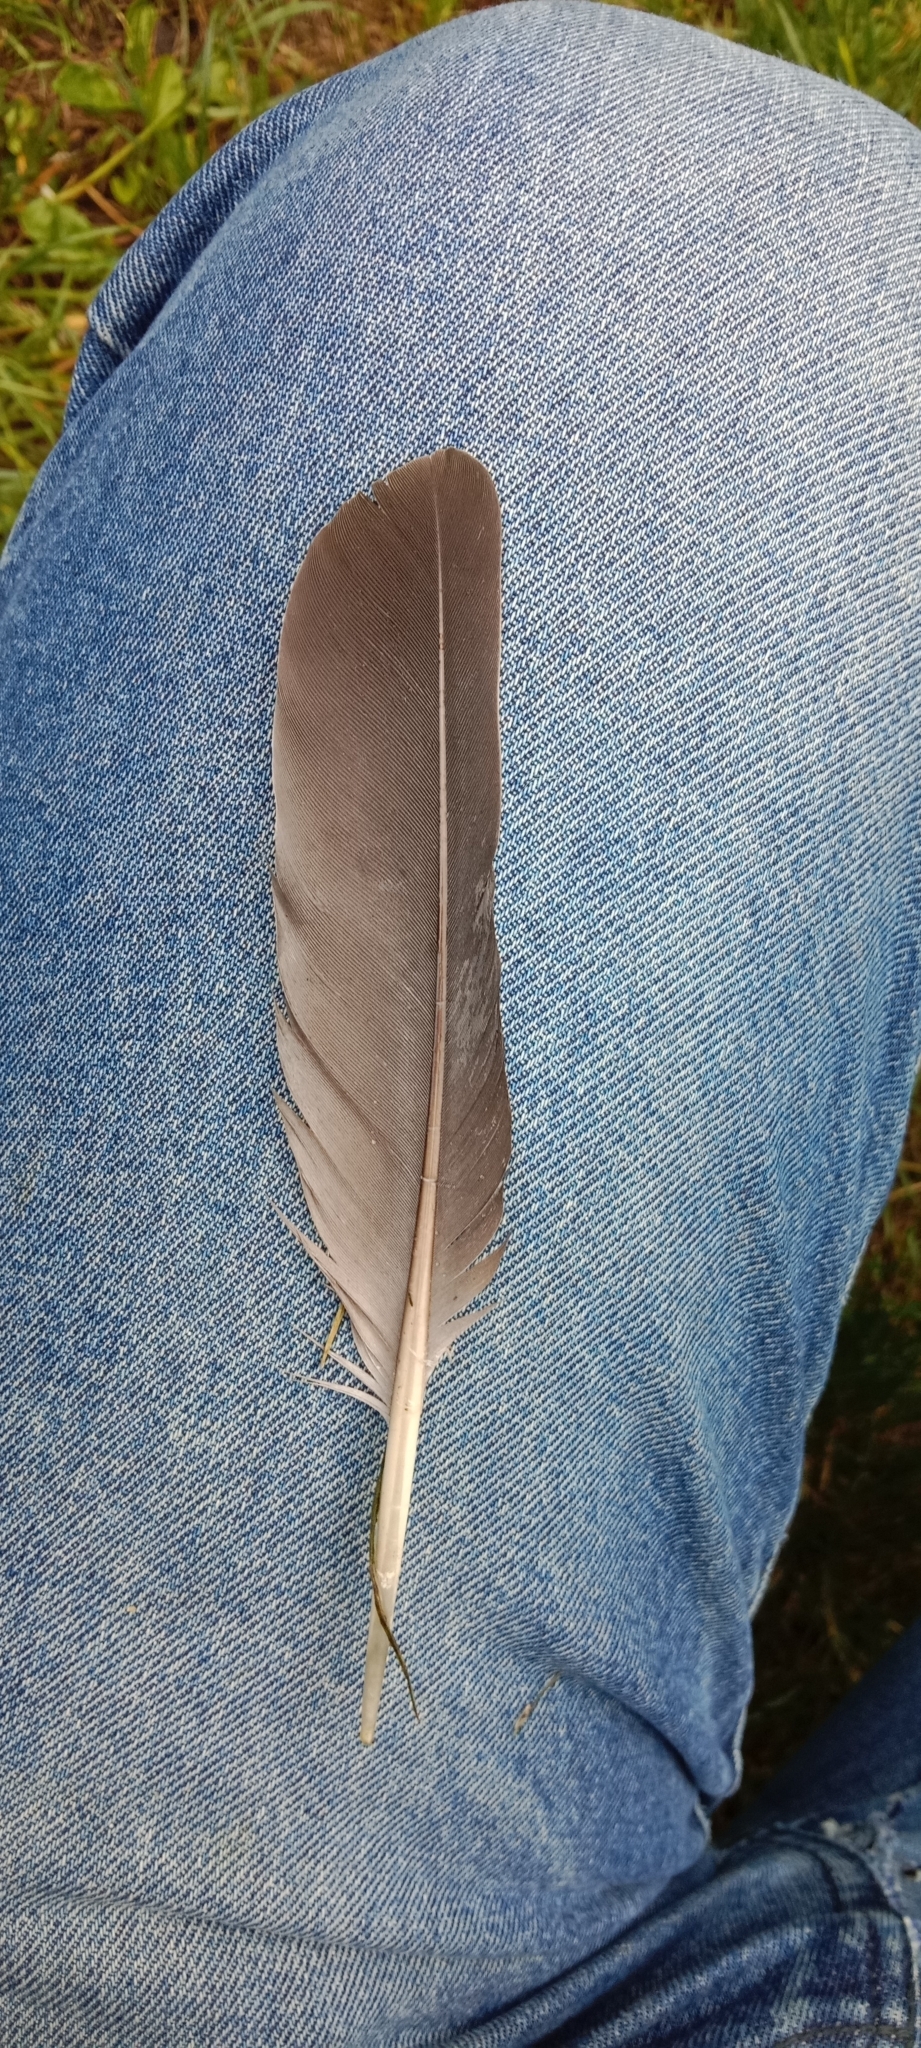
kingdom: Animalia
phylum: Chordata
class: Aves
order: Columbiformes
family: Columbidae
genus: Columba
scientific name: Columba palumbus
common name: Common wood pigeon
